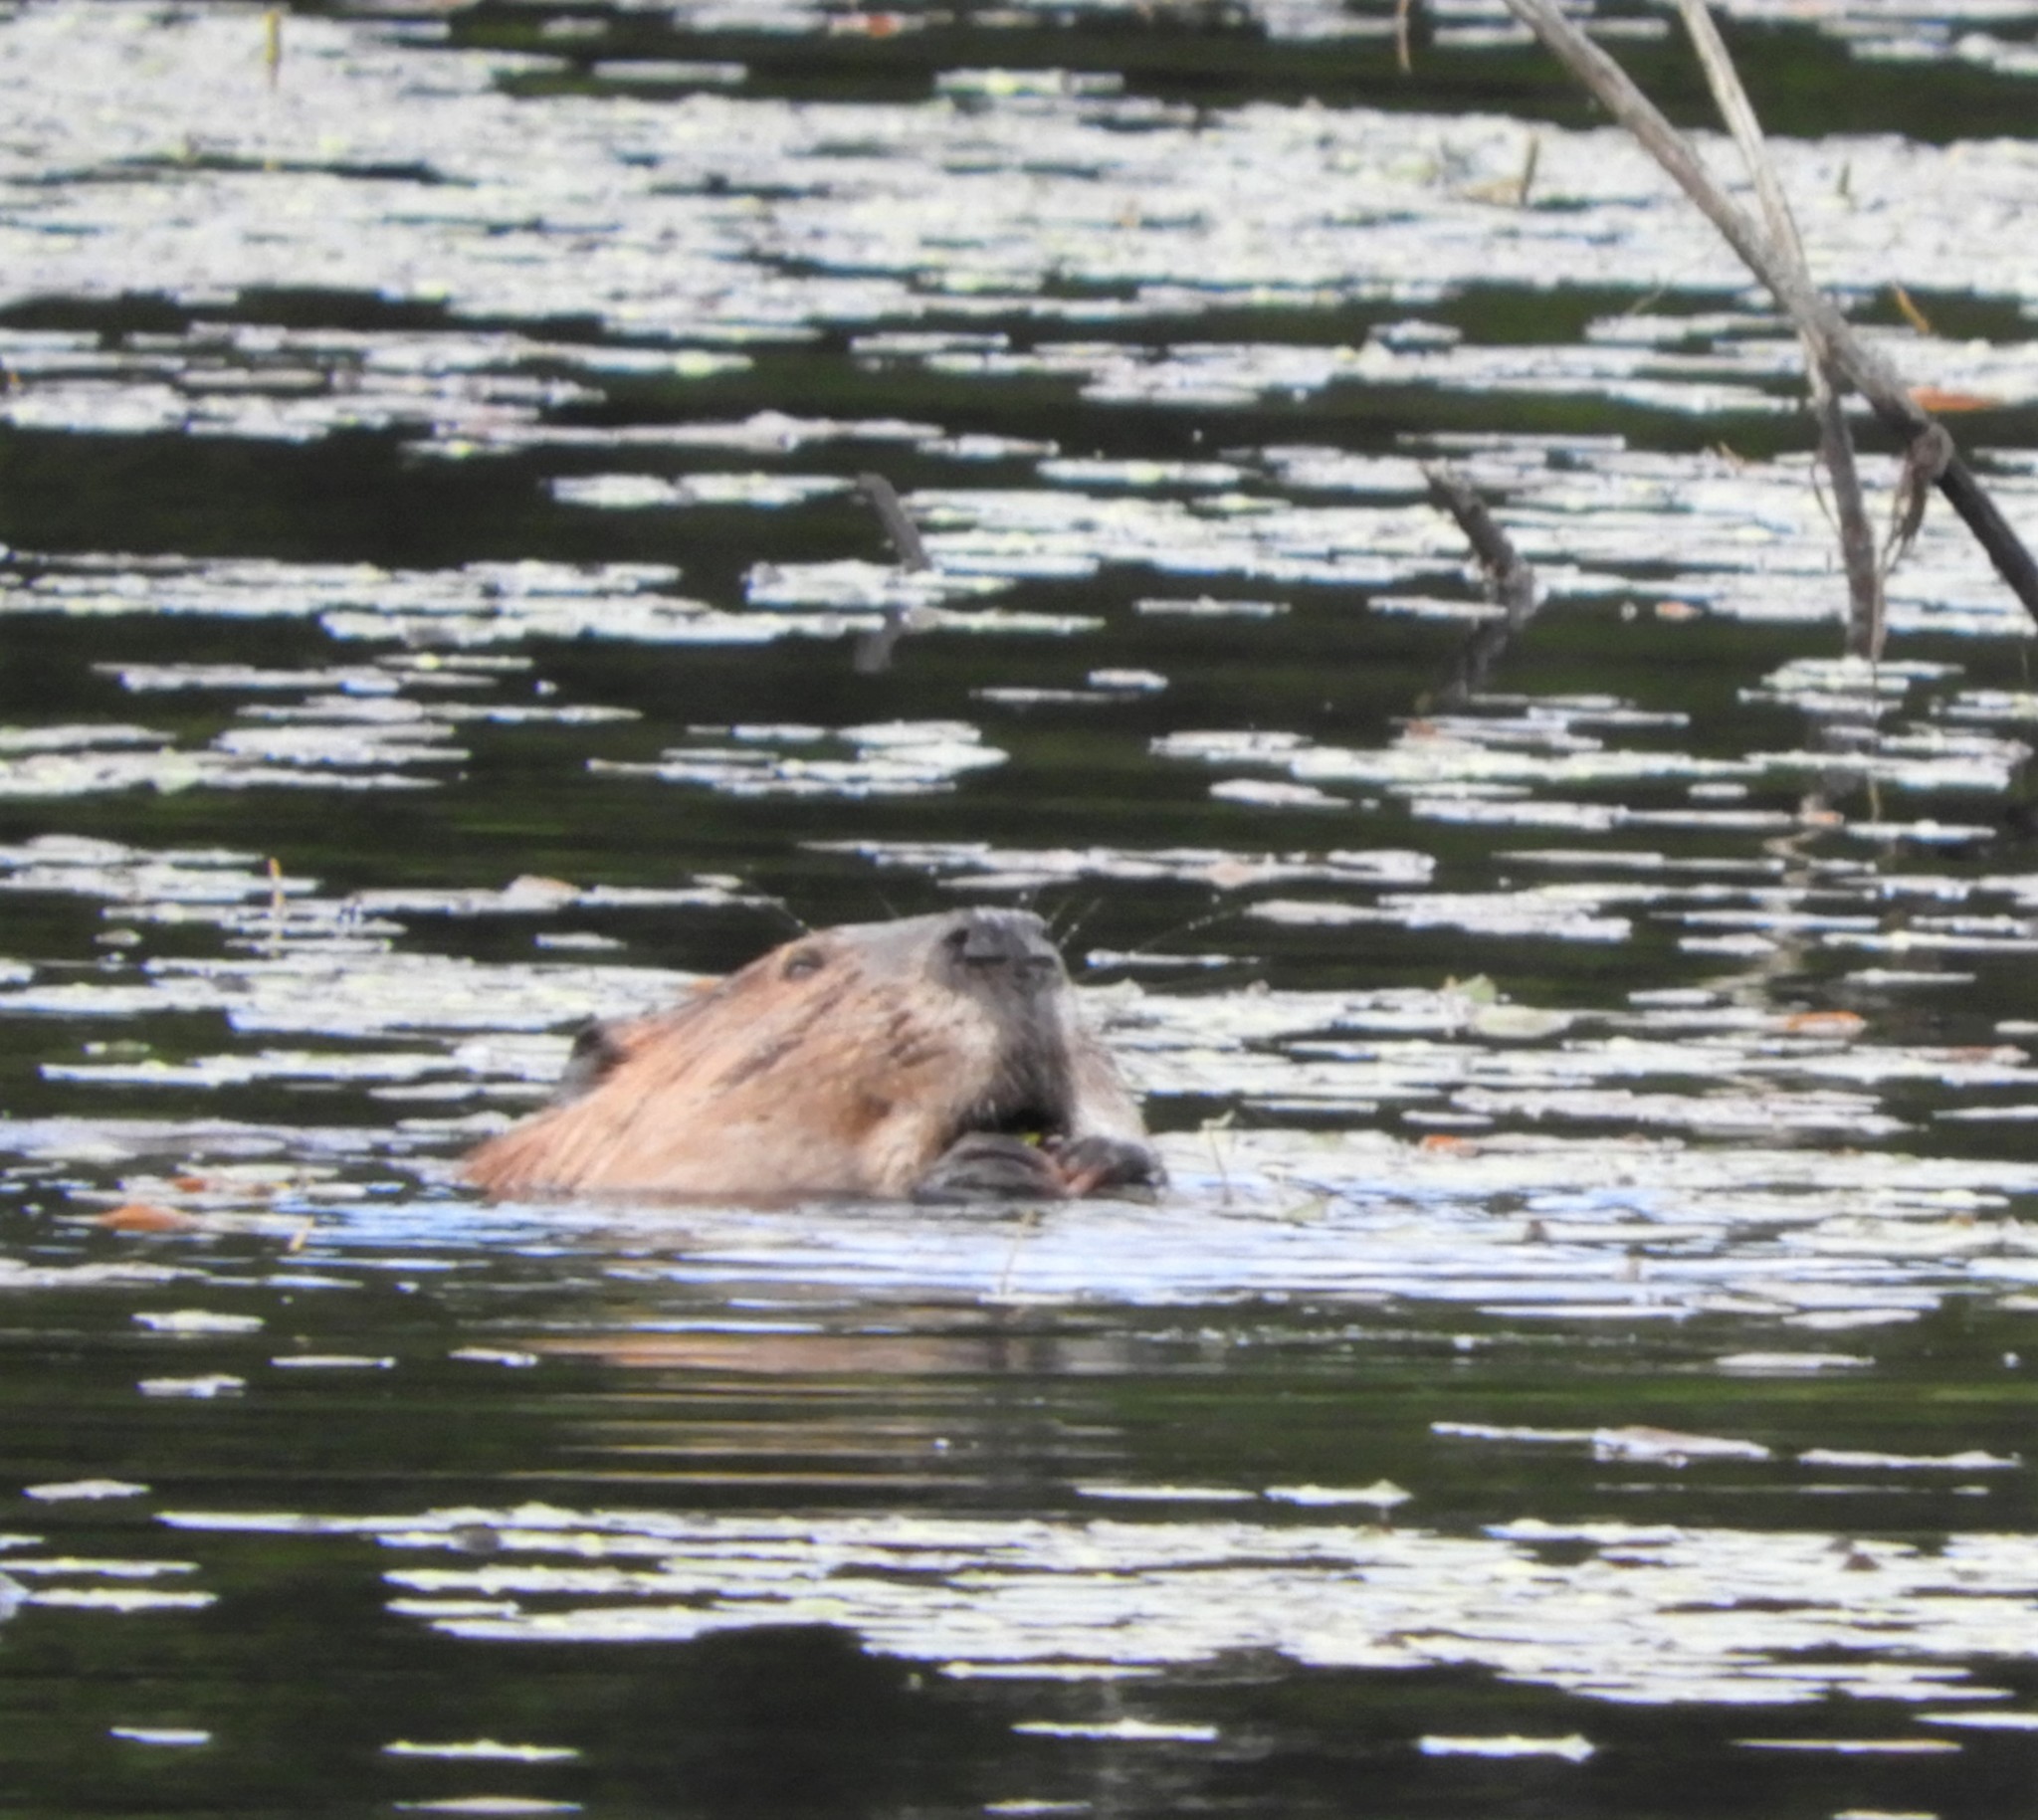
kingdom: Animalia
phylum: Chordata
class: Mammalia
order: Rodentia
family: Castoridae
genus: Castor
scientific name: Castor canadensis
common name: American beaver
